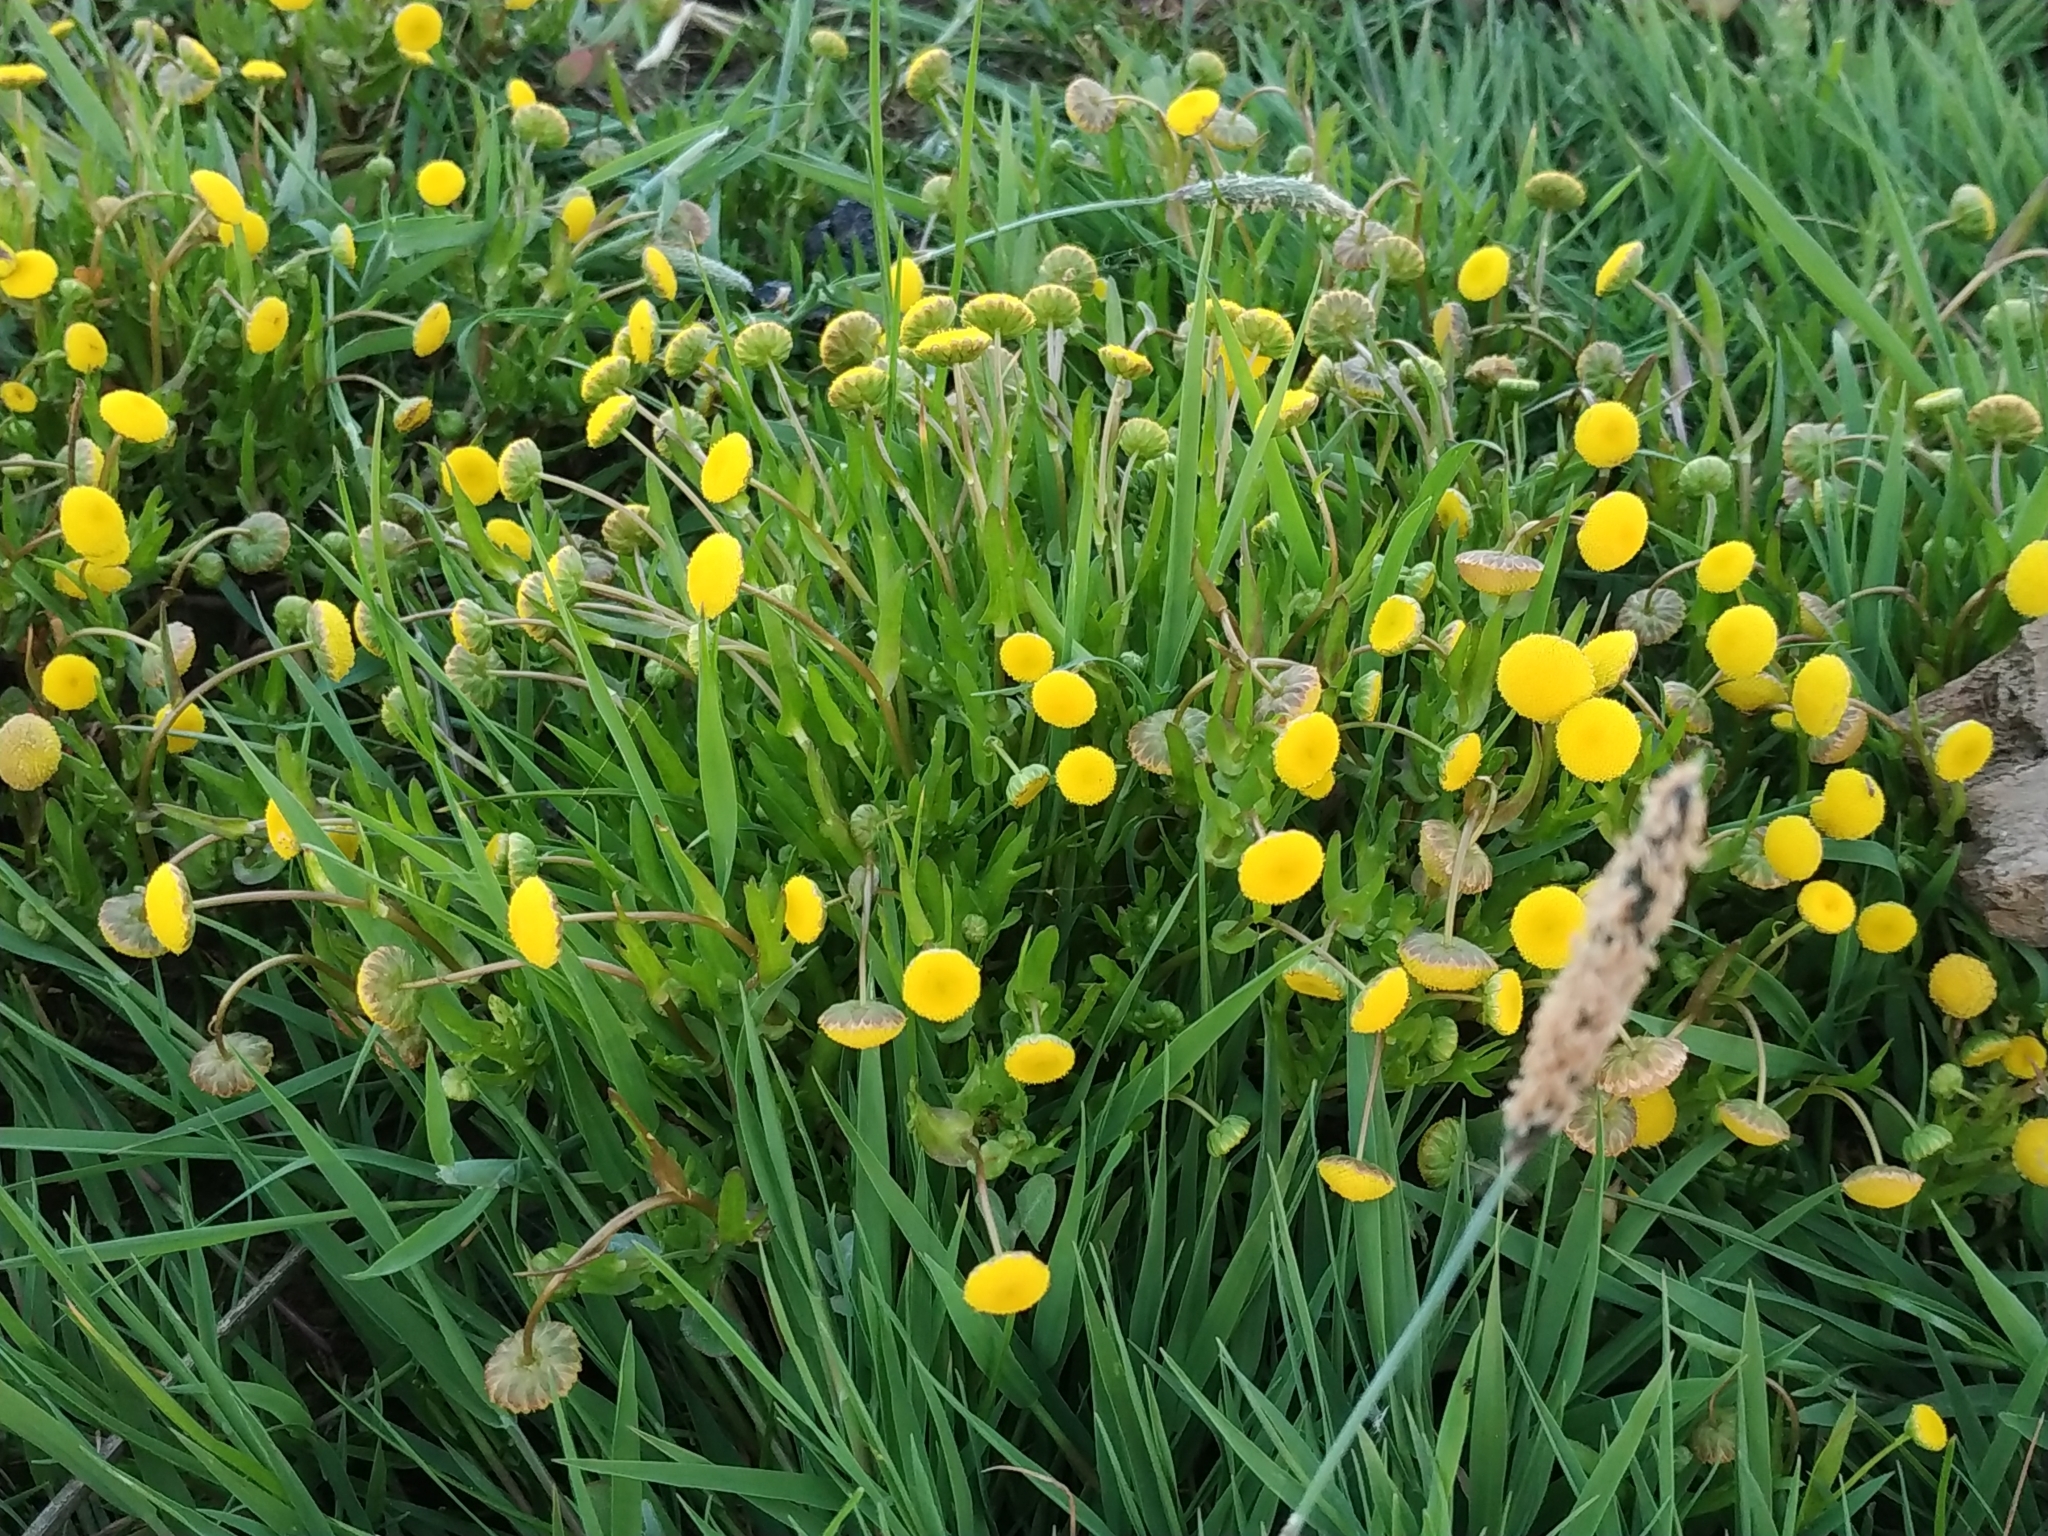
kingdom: Plantae
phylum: Tracheophyta
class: Magnoliopsida
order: Asterales
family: Asteraceae
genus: Cotula
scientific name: Cotula coronopifolia
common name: Buttonweed
